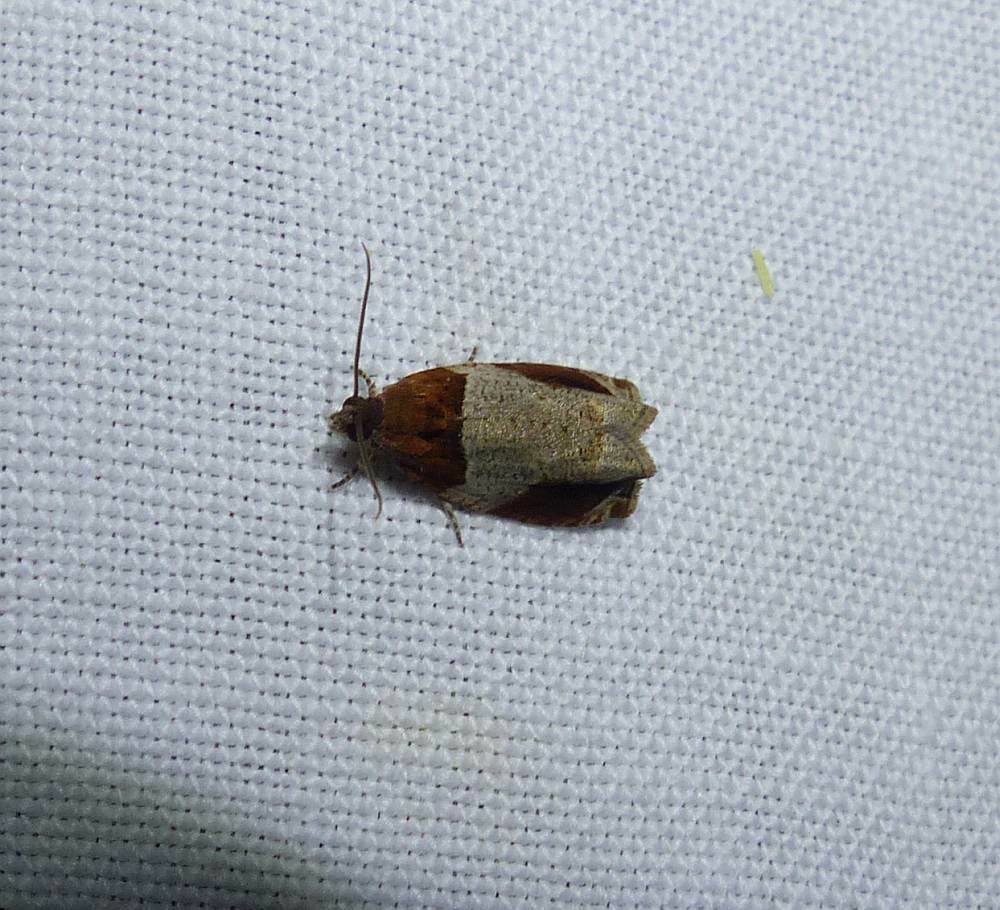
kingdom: Animalia
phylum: Arthropoda
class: Insecta
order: Lepidoptera
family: Tortricidae
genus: Olethreutes
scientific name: Olethreutes ferriferana
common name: Hydrangea leaftier moth
